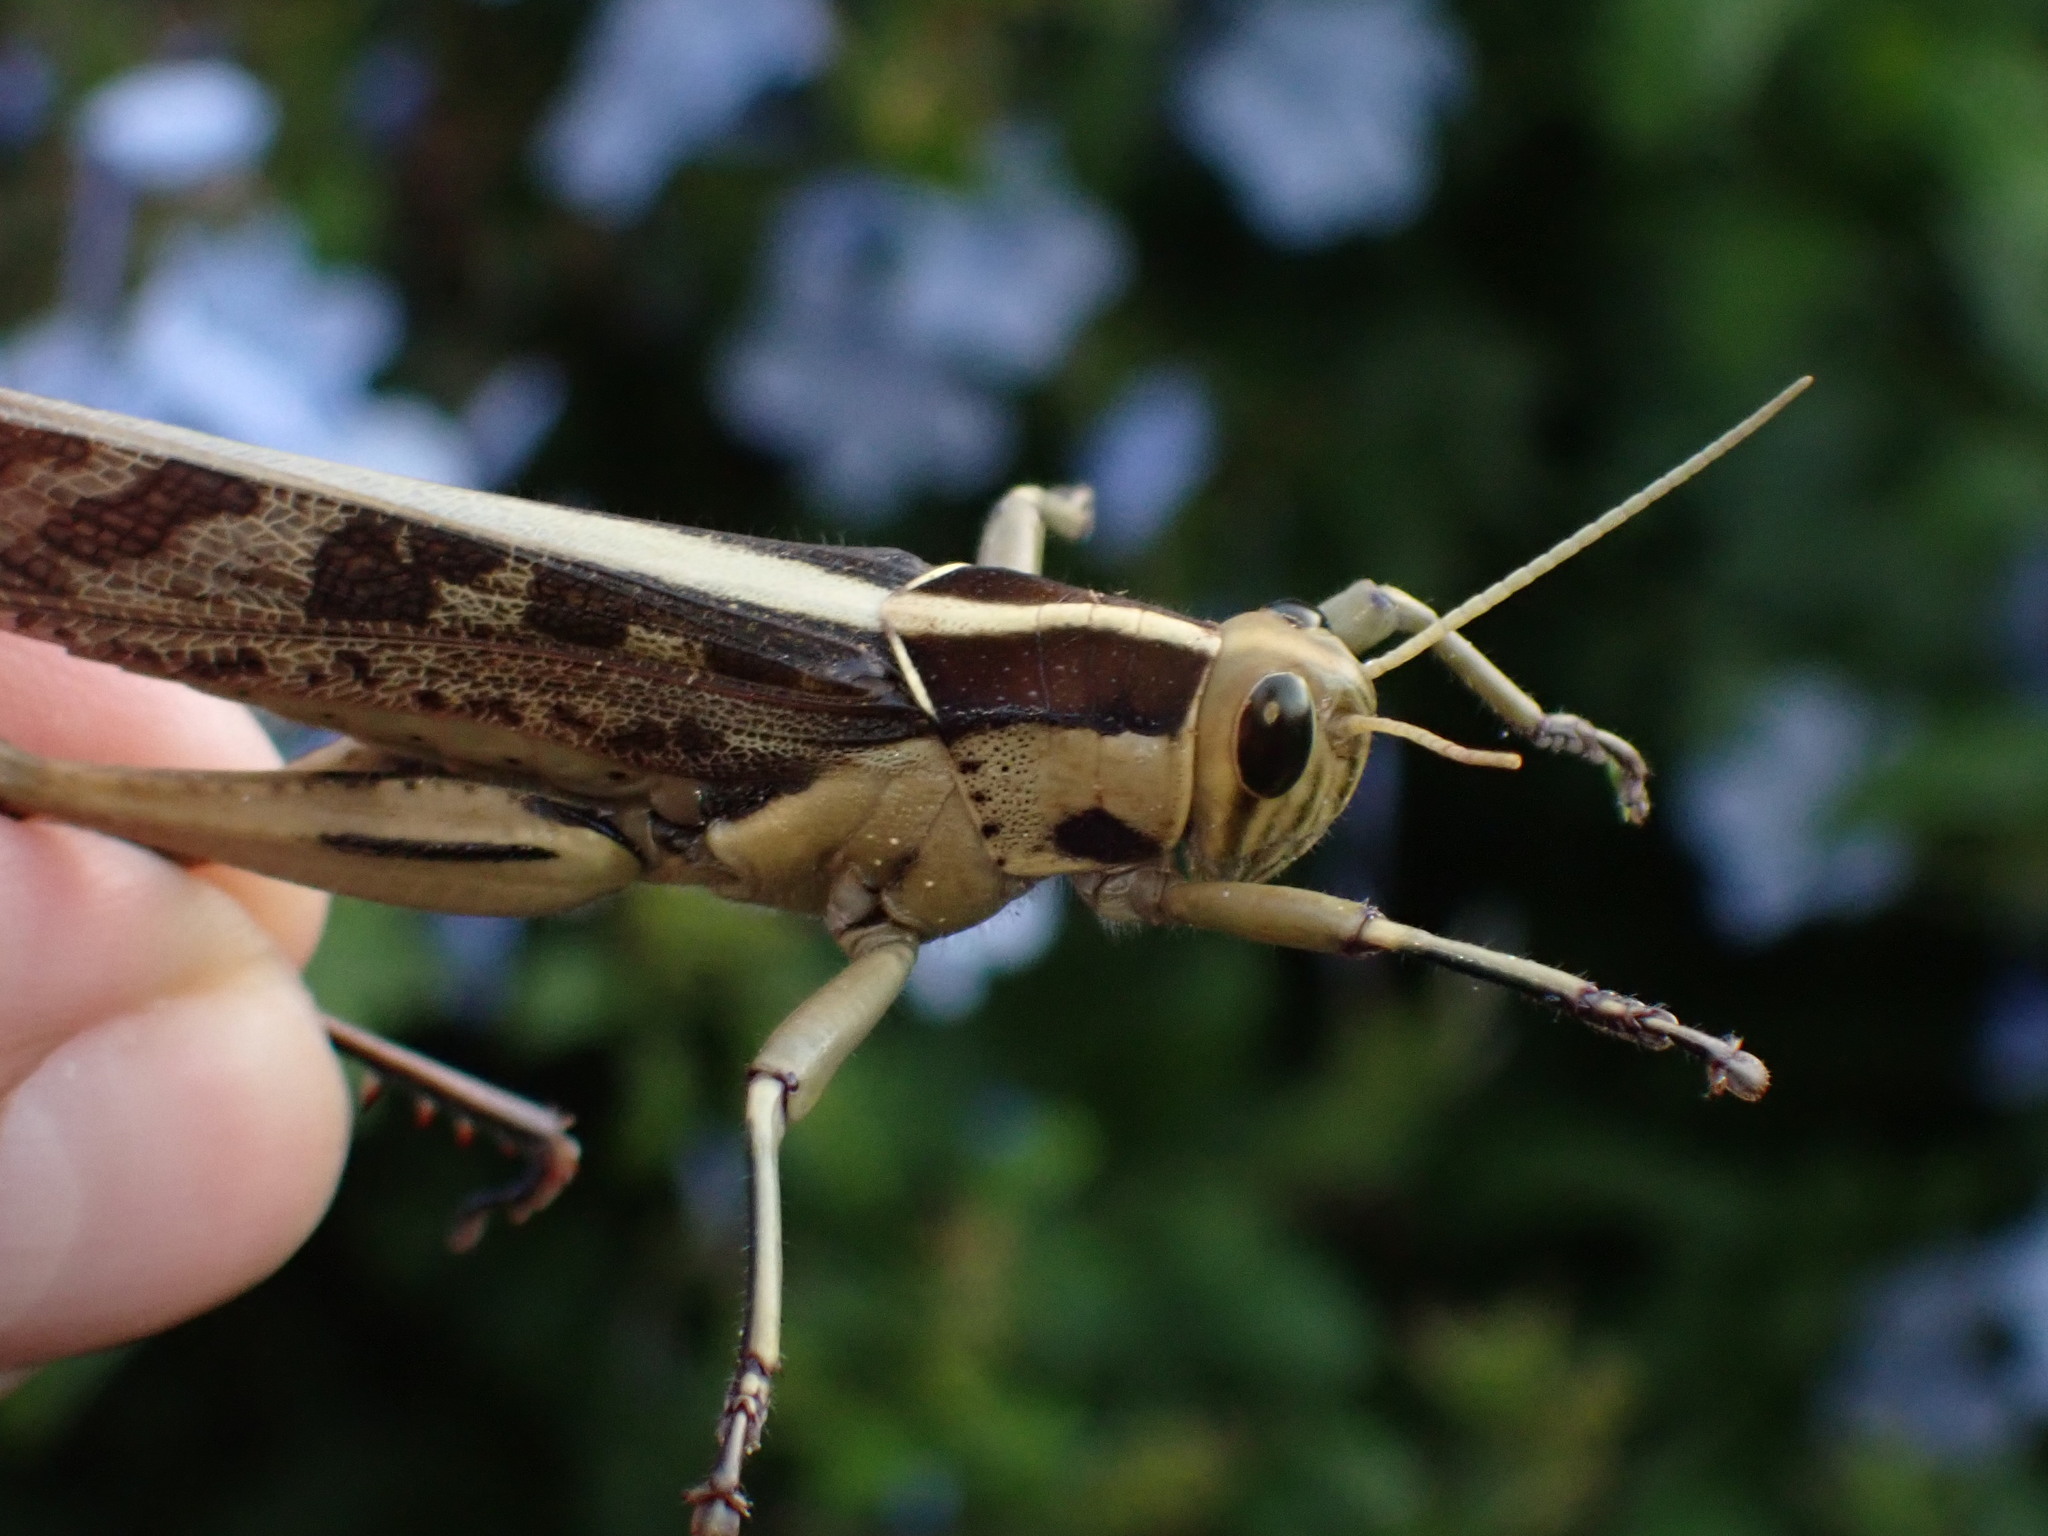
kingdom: Animalia
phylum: Arthropoda
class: Insecta
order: Orthoptera
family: Acrididae
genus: Acanthacris
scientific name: Acanthacris ruficornis
